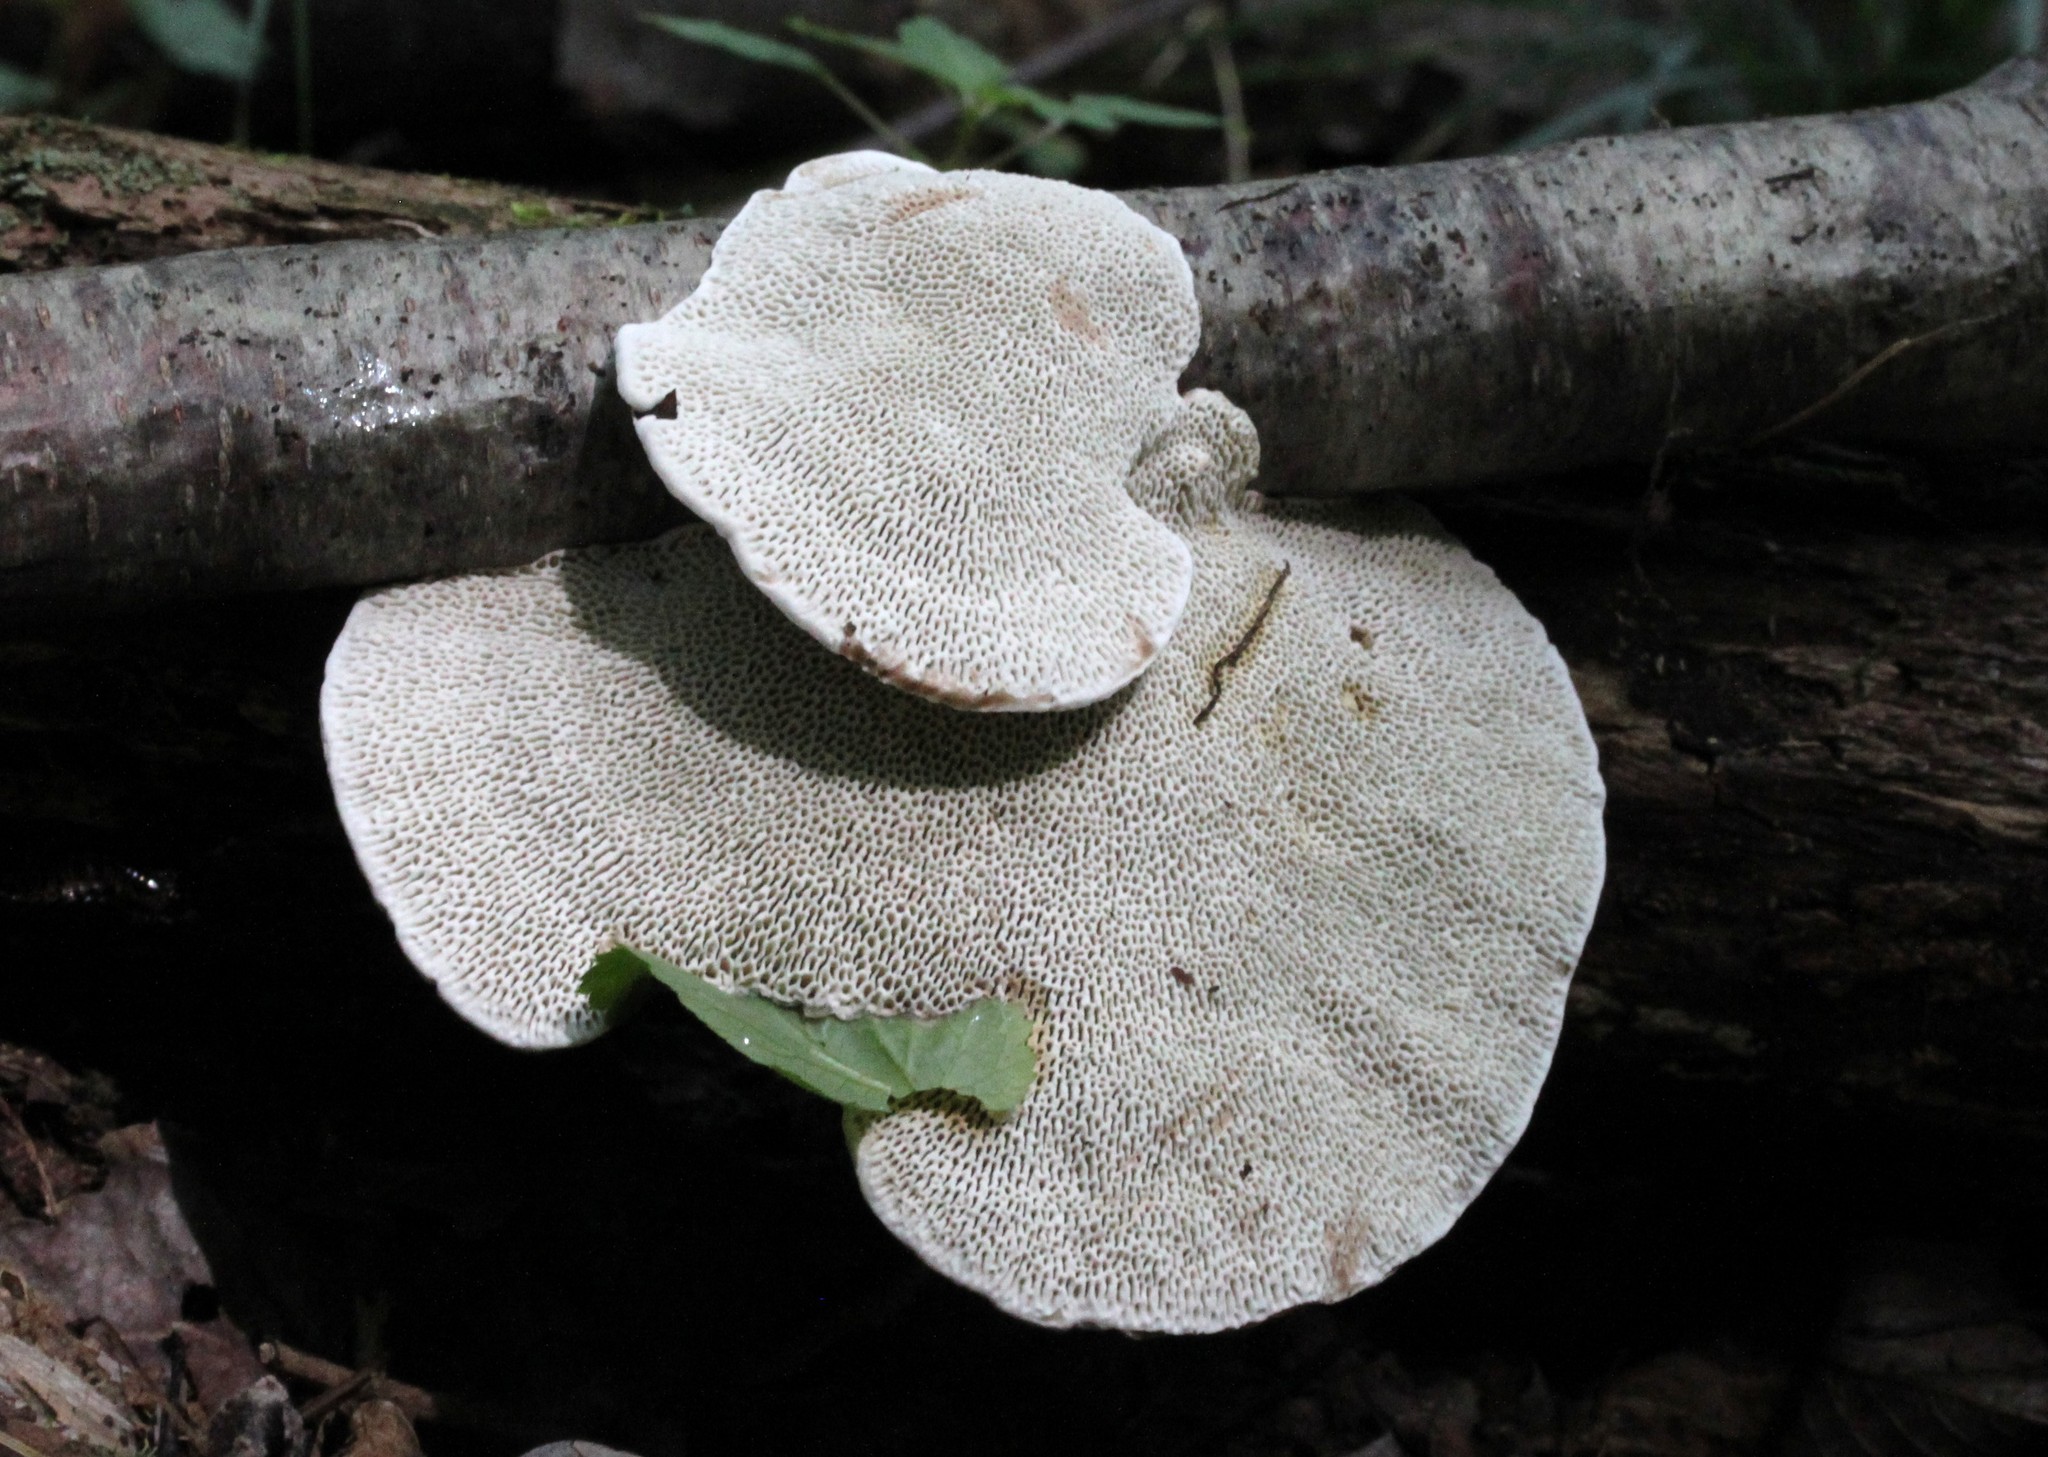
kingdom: Fungi
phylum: Basidiomycota
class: Agaricomycetes
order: Polyporales
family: Polyporaceae
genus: Daedaleopsis
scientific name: Daedaleopsis confragosa
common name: Blushing bracket
